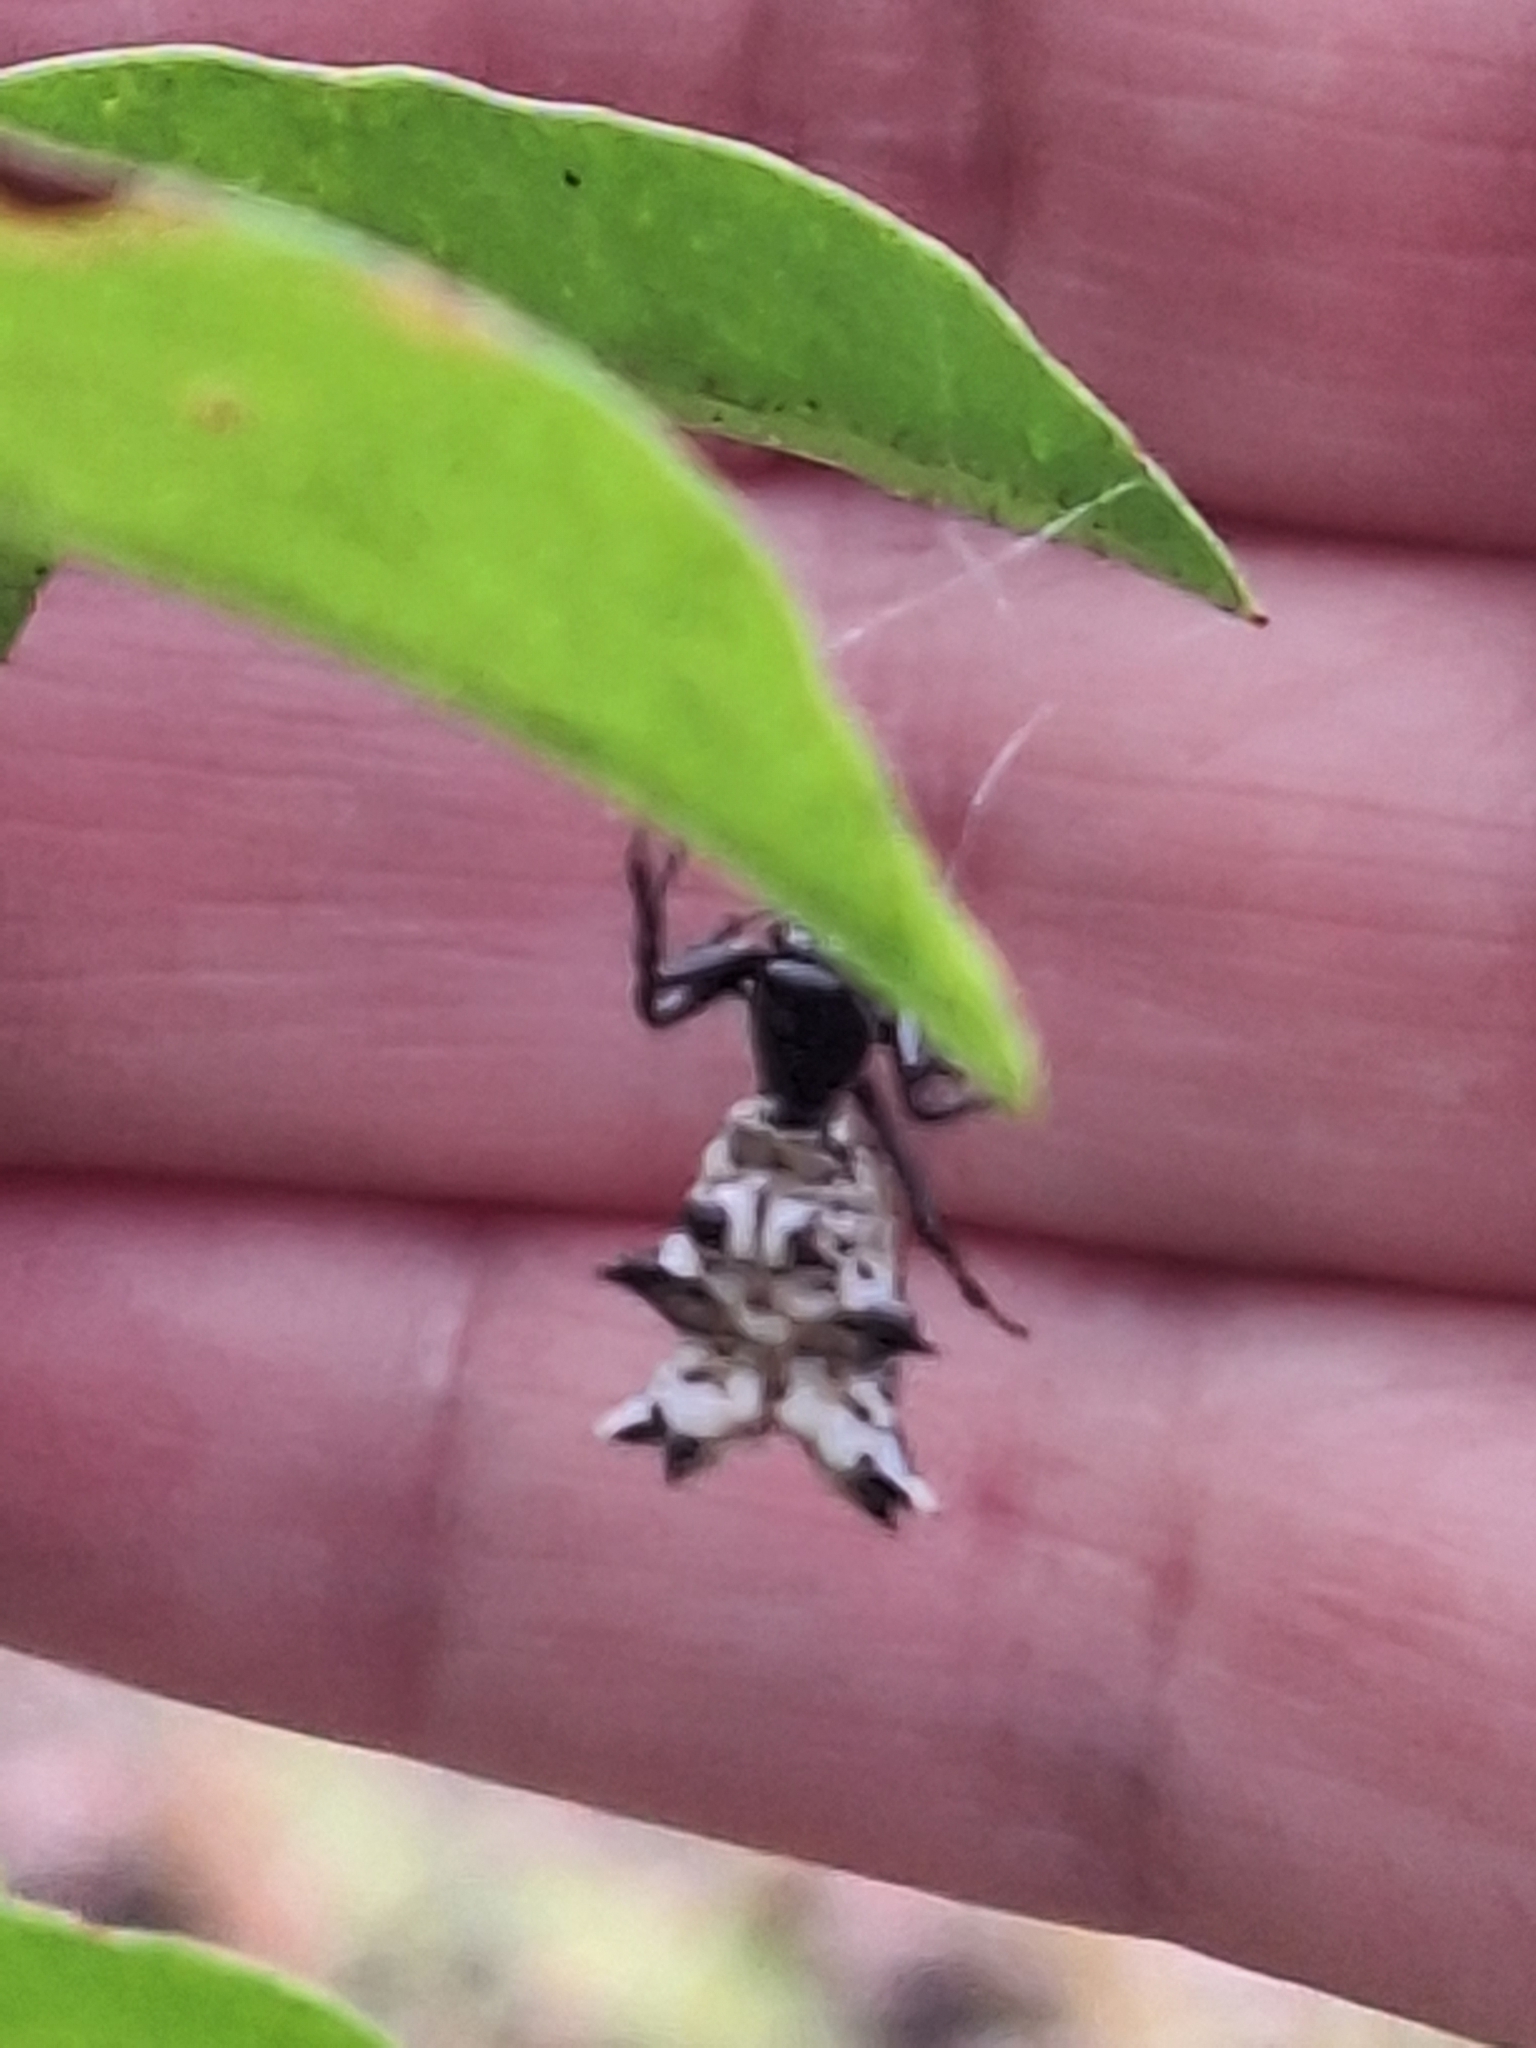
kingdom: Animalia
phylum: Arthropoda
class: Arachnida
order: Araneae
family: Araneidae
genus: Micrathena
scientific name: Micrathena gracilis
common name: Orb weavers
